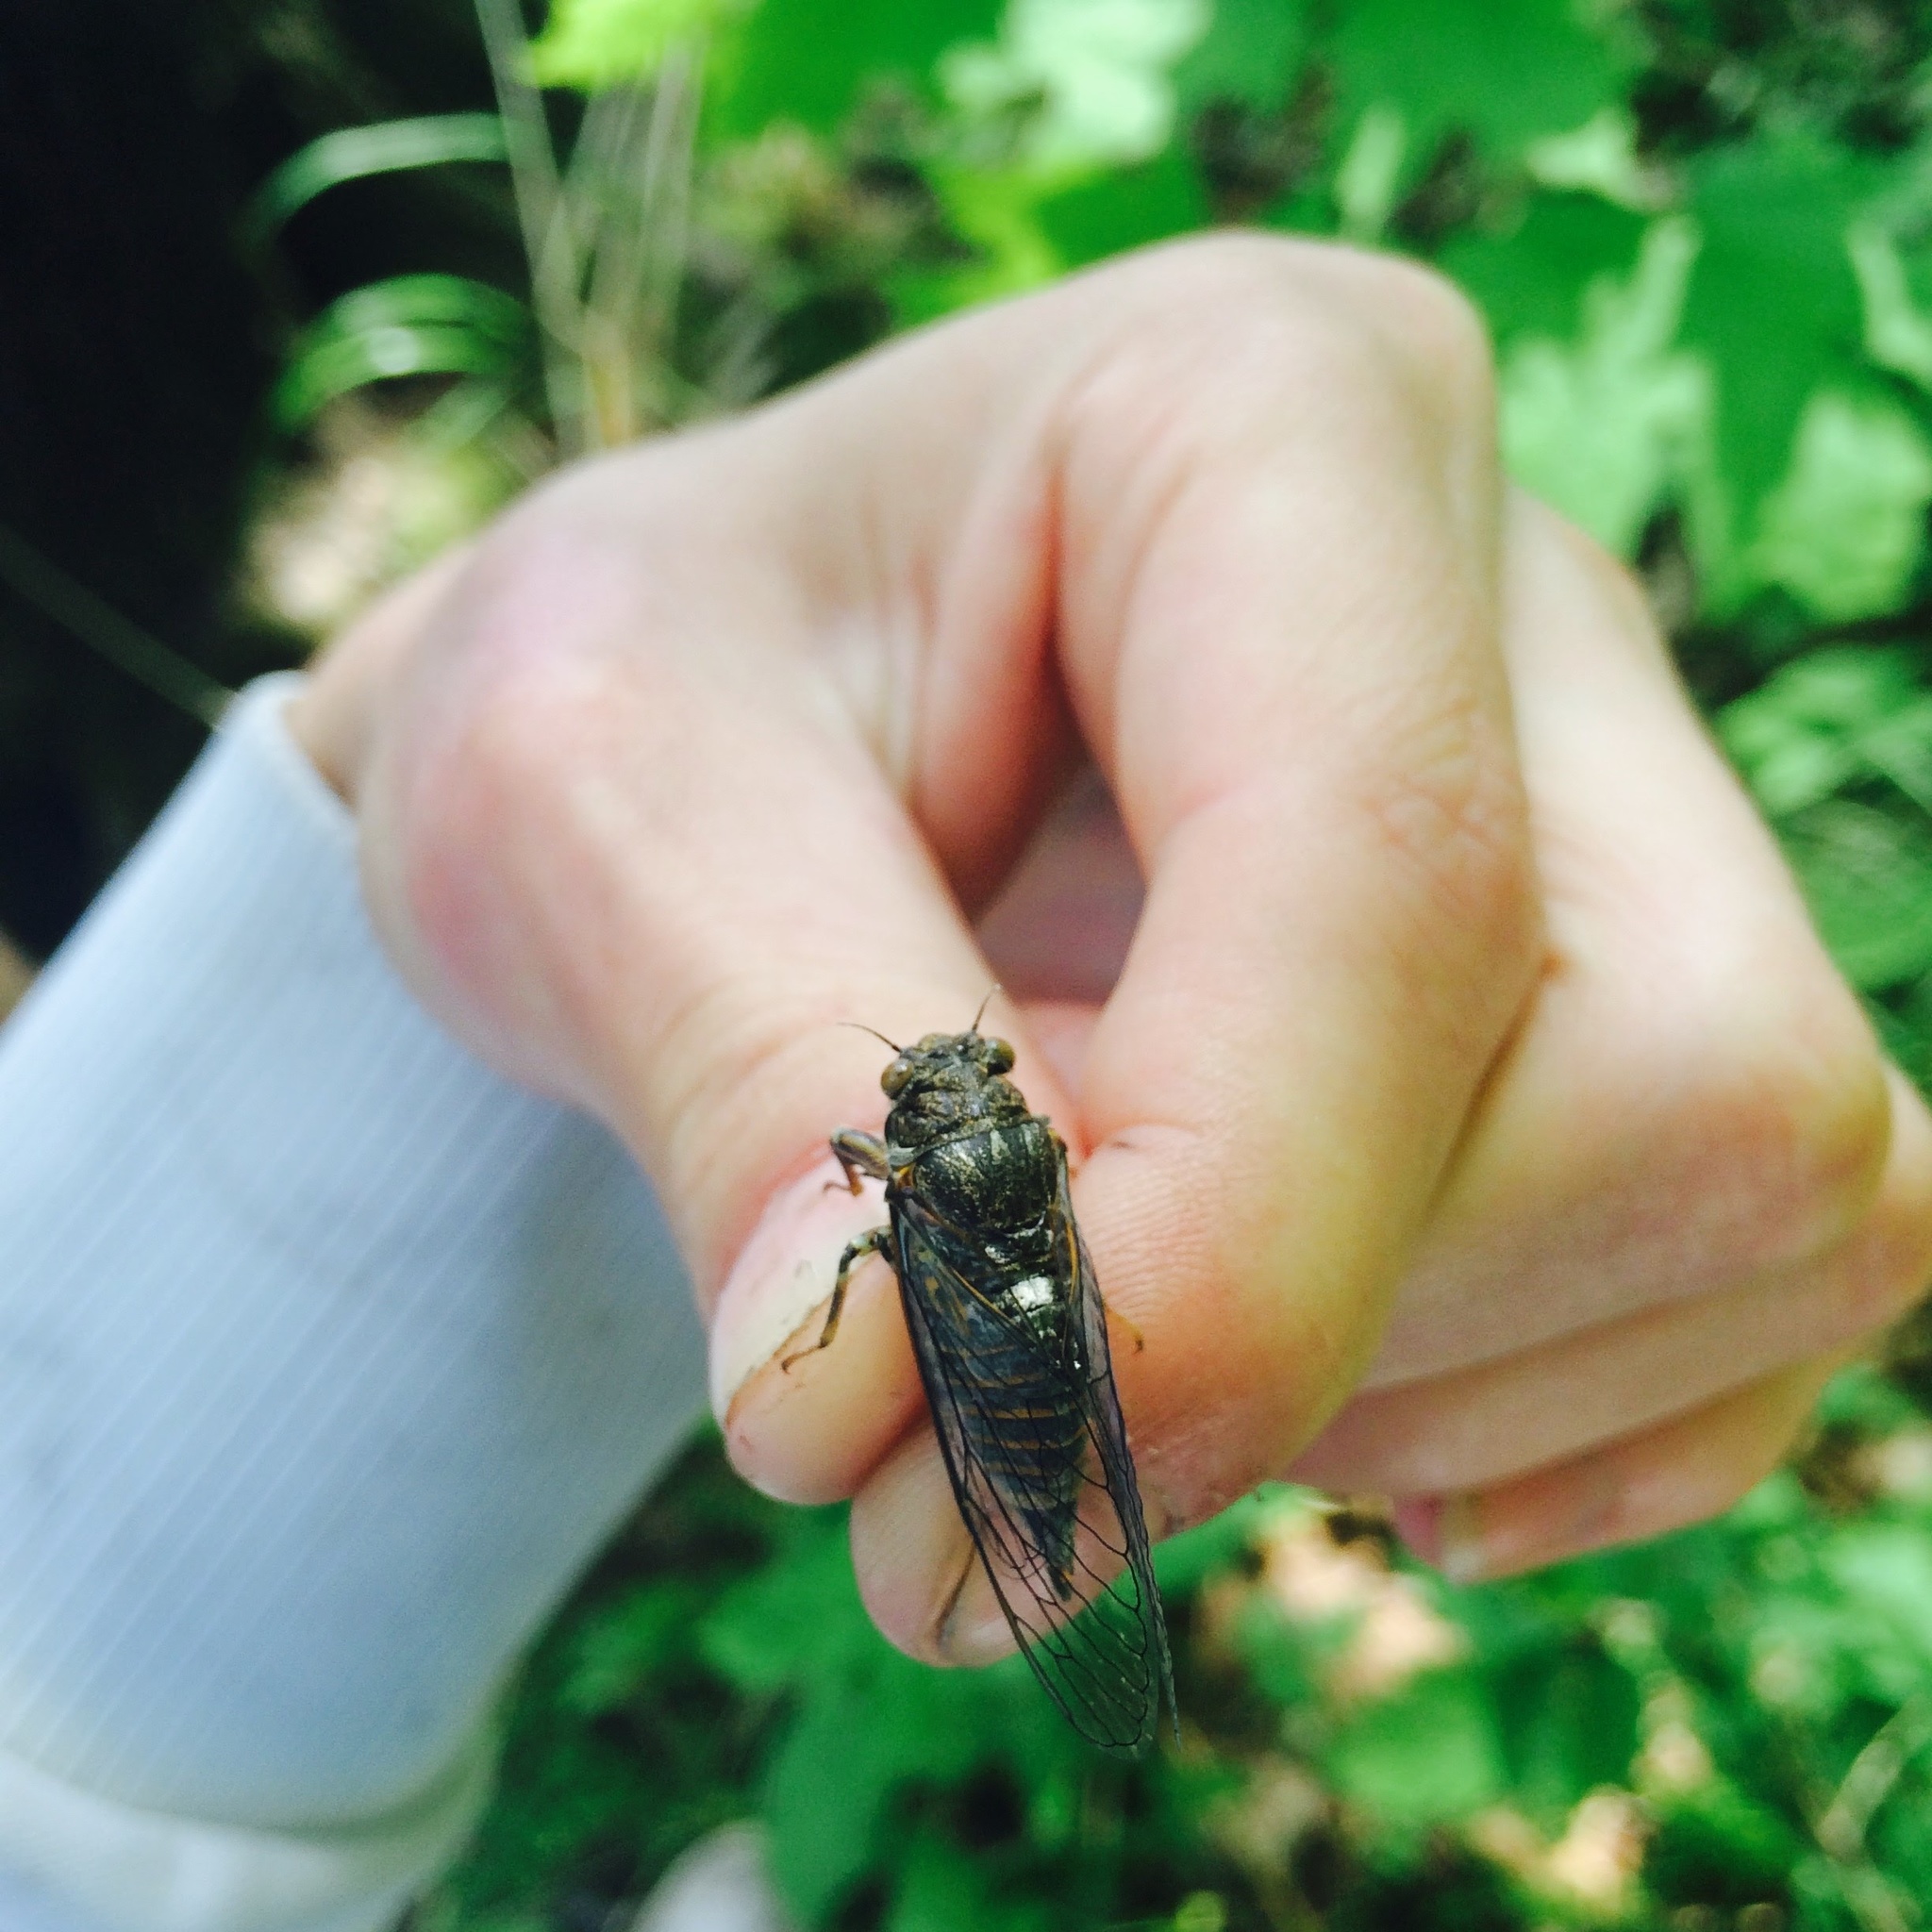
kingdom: Animalia
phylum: Arthropoda
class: Insecta
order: Hemiptera
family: Cicadidae
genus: Cicadetta
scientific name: Cicadetta montana
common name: New forest cicada
